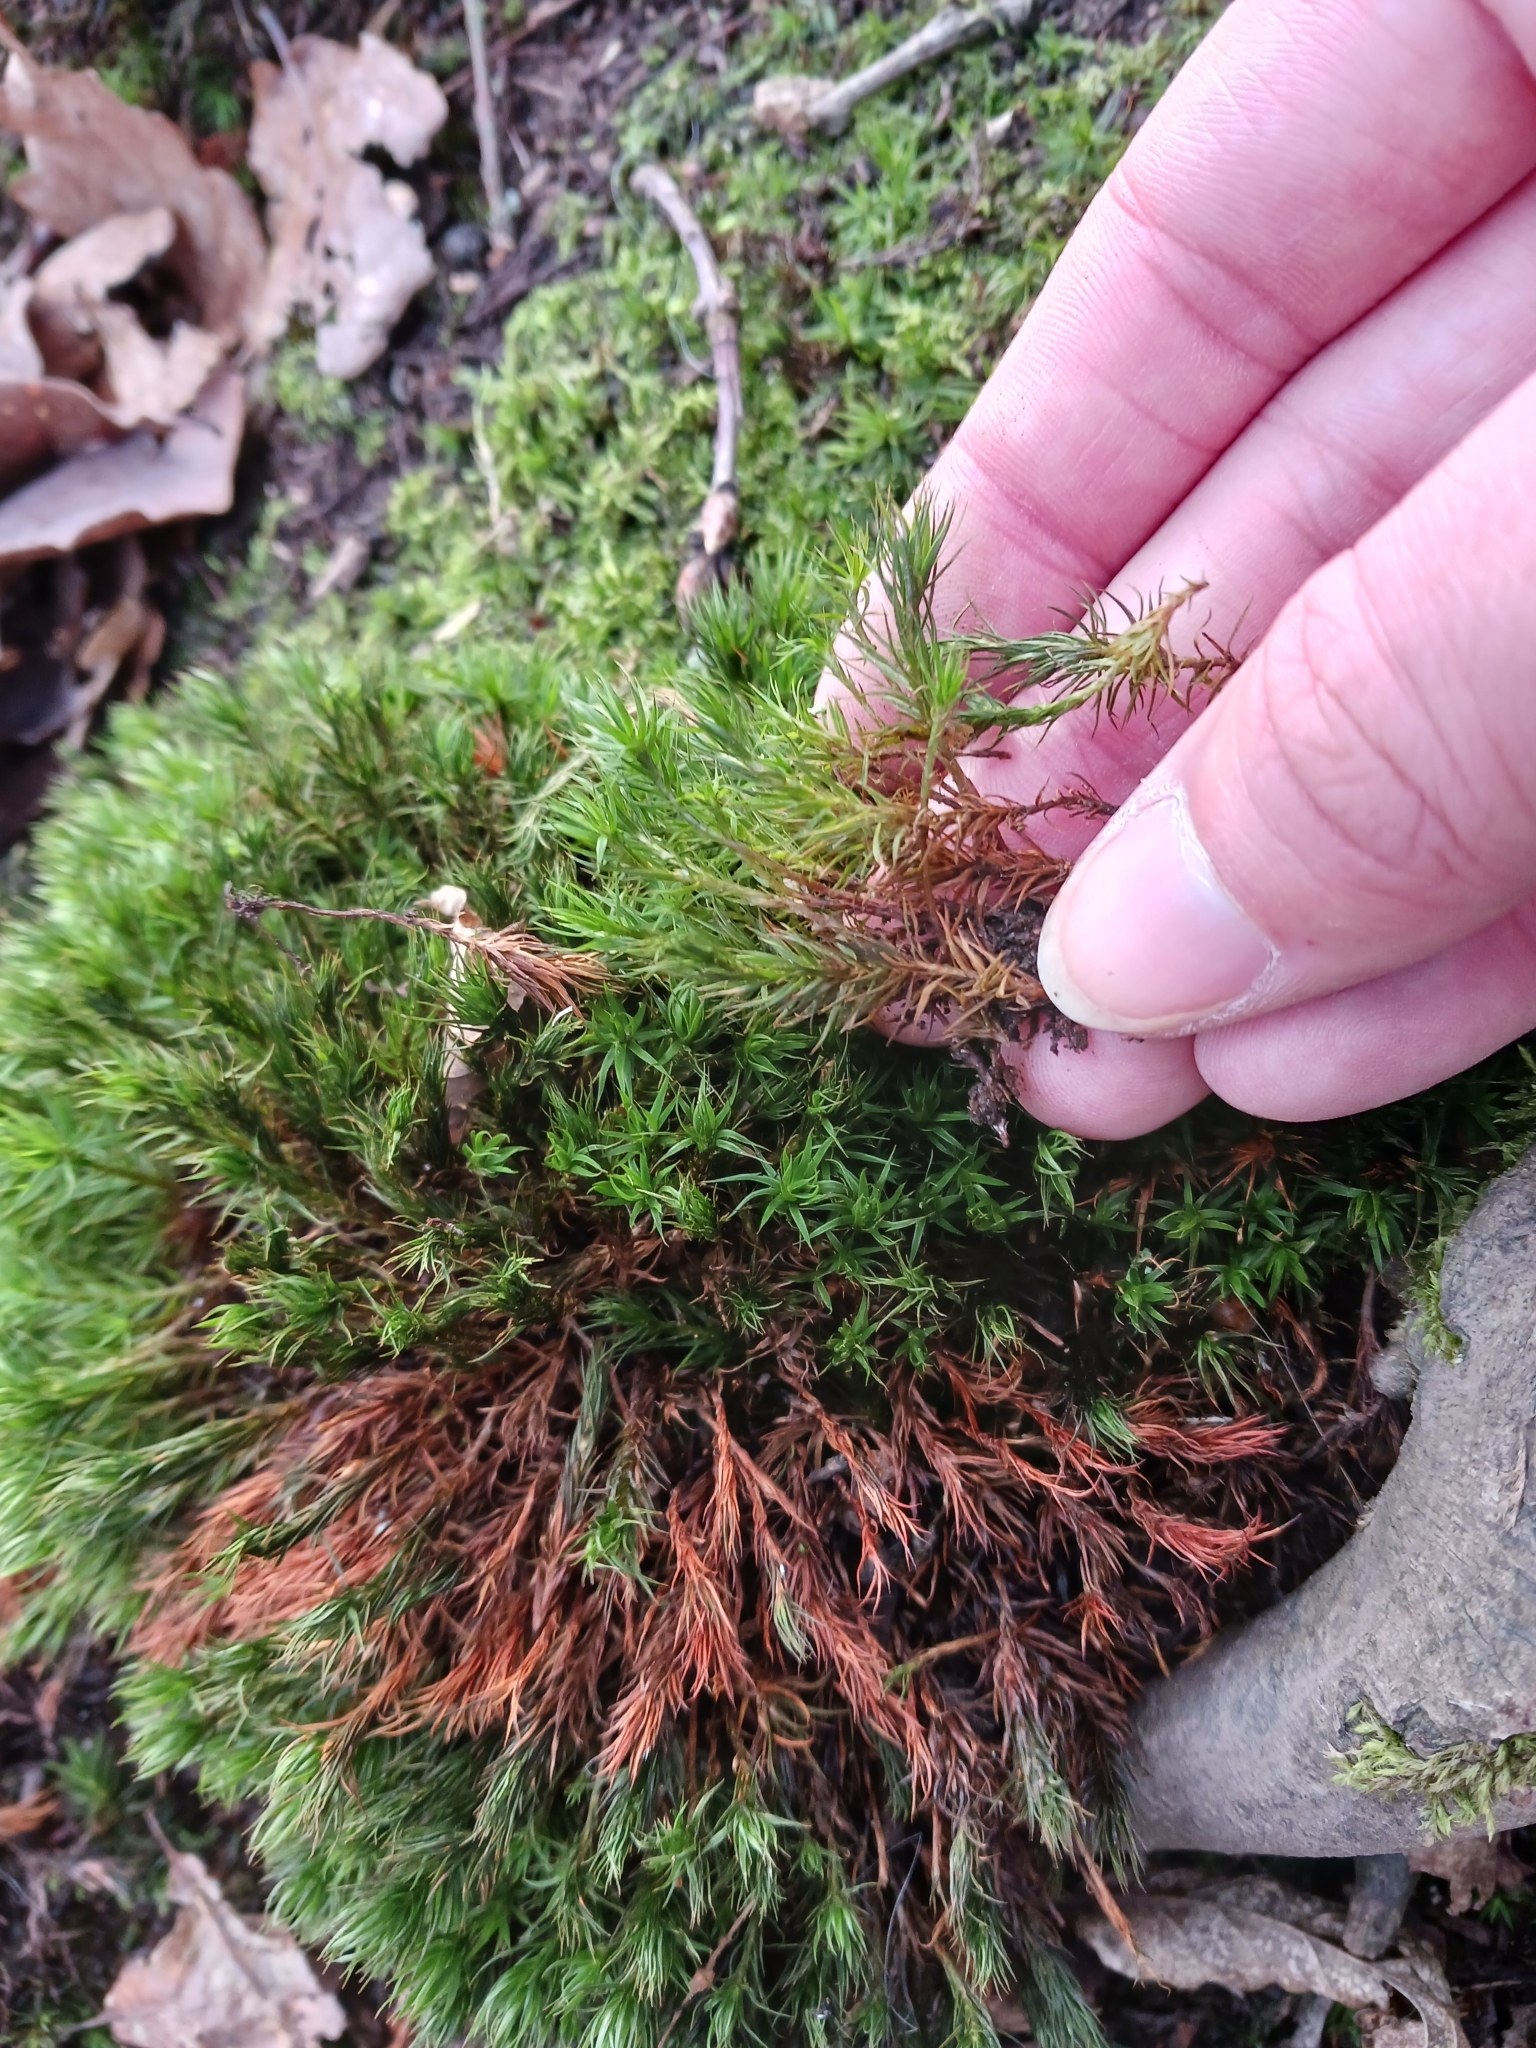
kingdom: Plantae
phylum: Bryophyta
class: Polytrichopsida
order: Polytrichales
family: Polytrichaceae
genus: Polytrichum
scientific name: Polytrichum formosum
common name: Bank haircap moss
